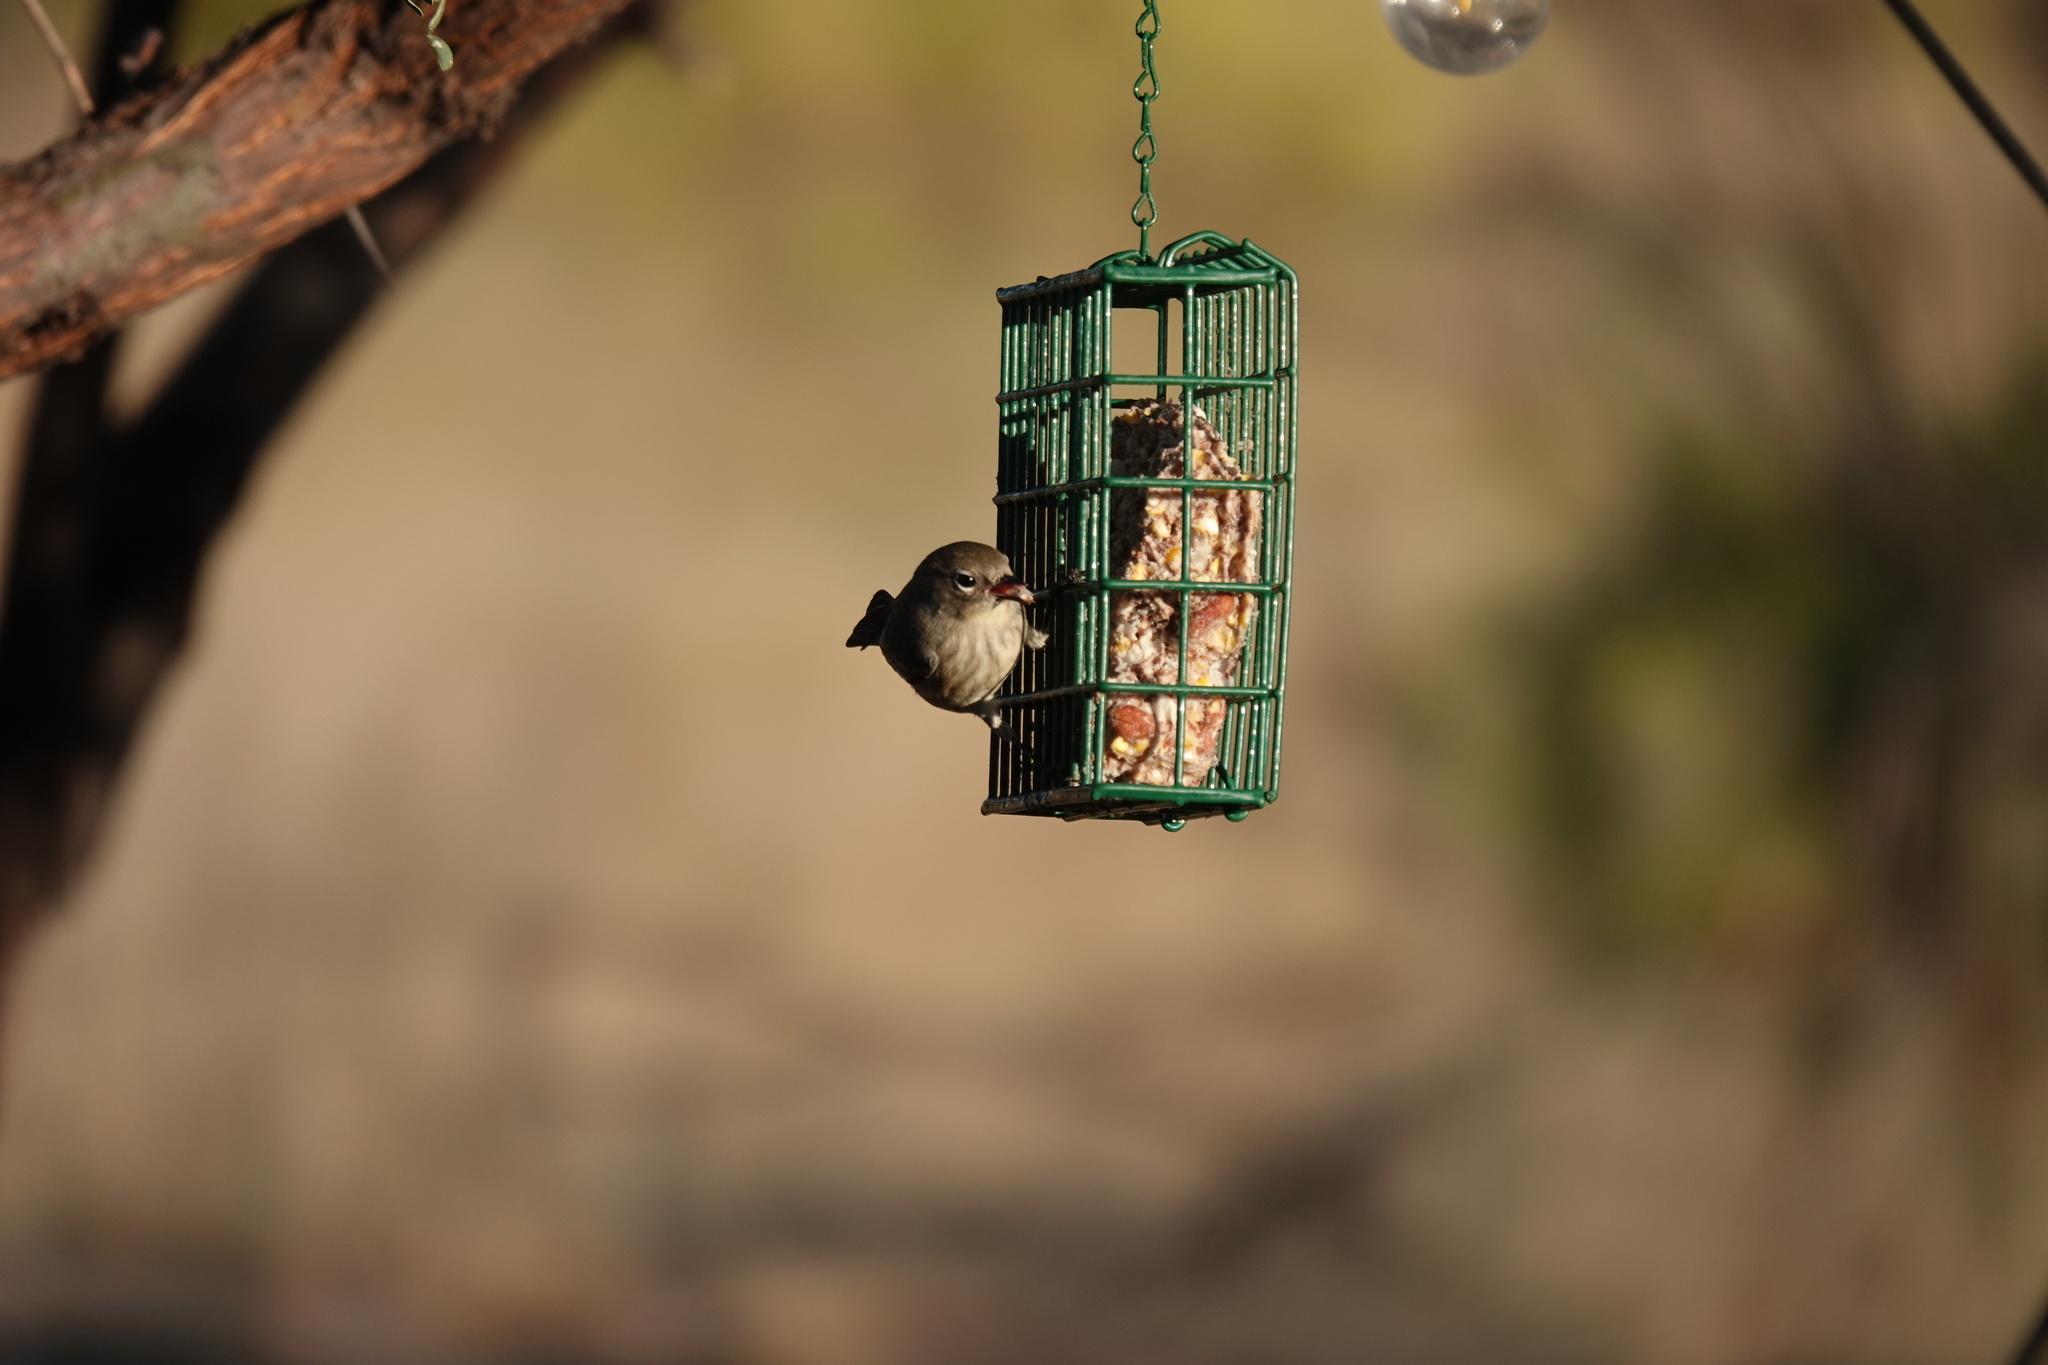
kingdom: Animalia
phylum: Chordata
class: Aves
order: Passeriformes
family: Parulidae
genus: Setophaga
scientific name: Setophaga coronata
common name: Myrtle warbler
